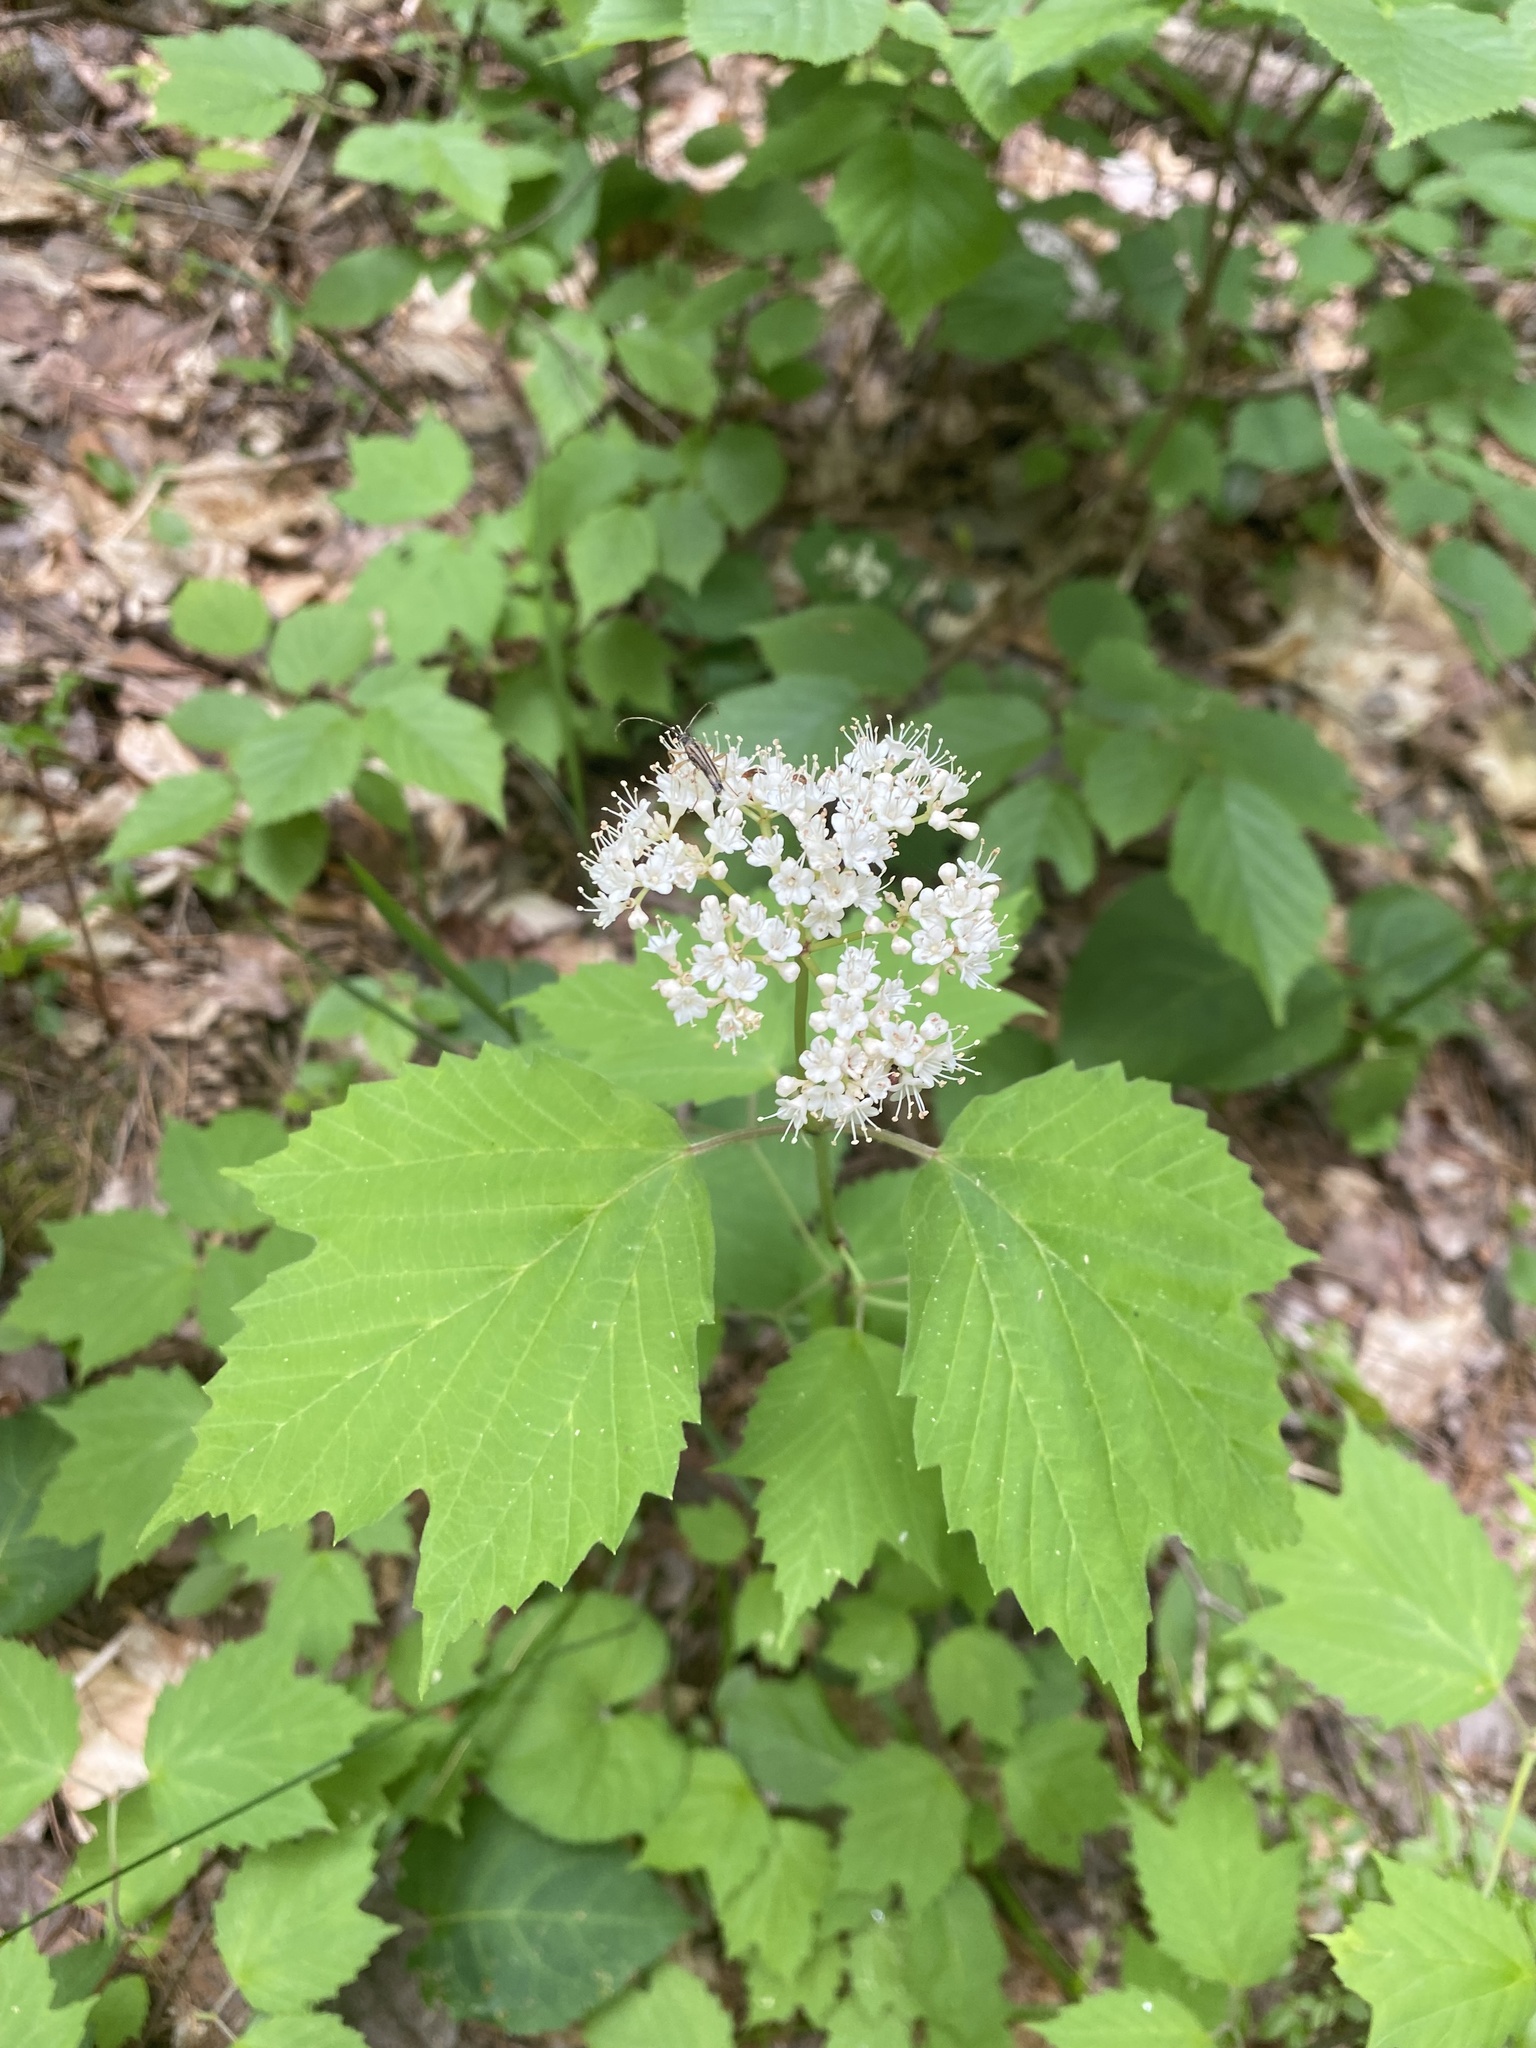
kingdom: Plantae
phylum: Tracheophyta
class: Magnoliopsida
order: Dipsacales
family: Viburnaceae
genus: Viburnum
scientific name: Viburnum acerifolium
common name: Dockmackie
